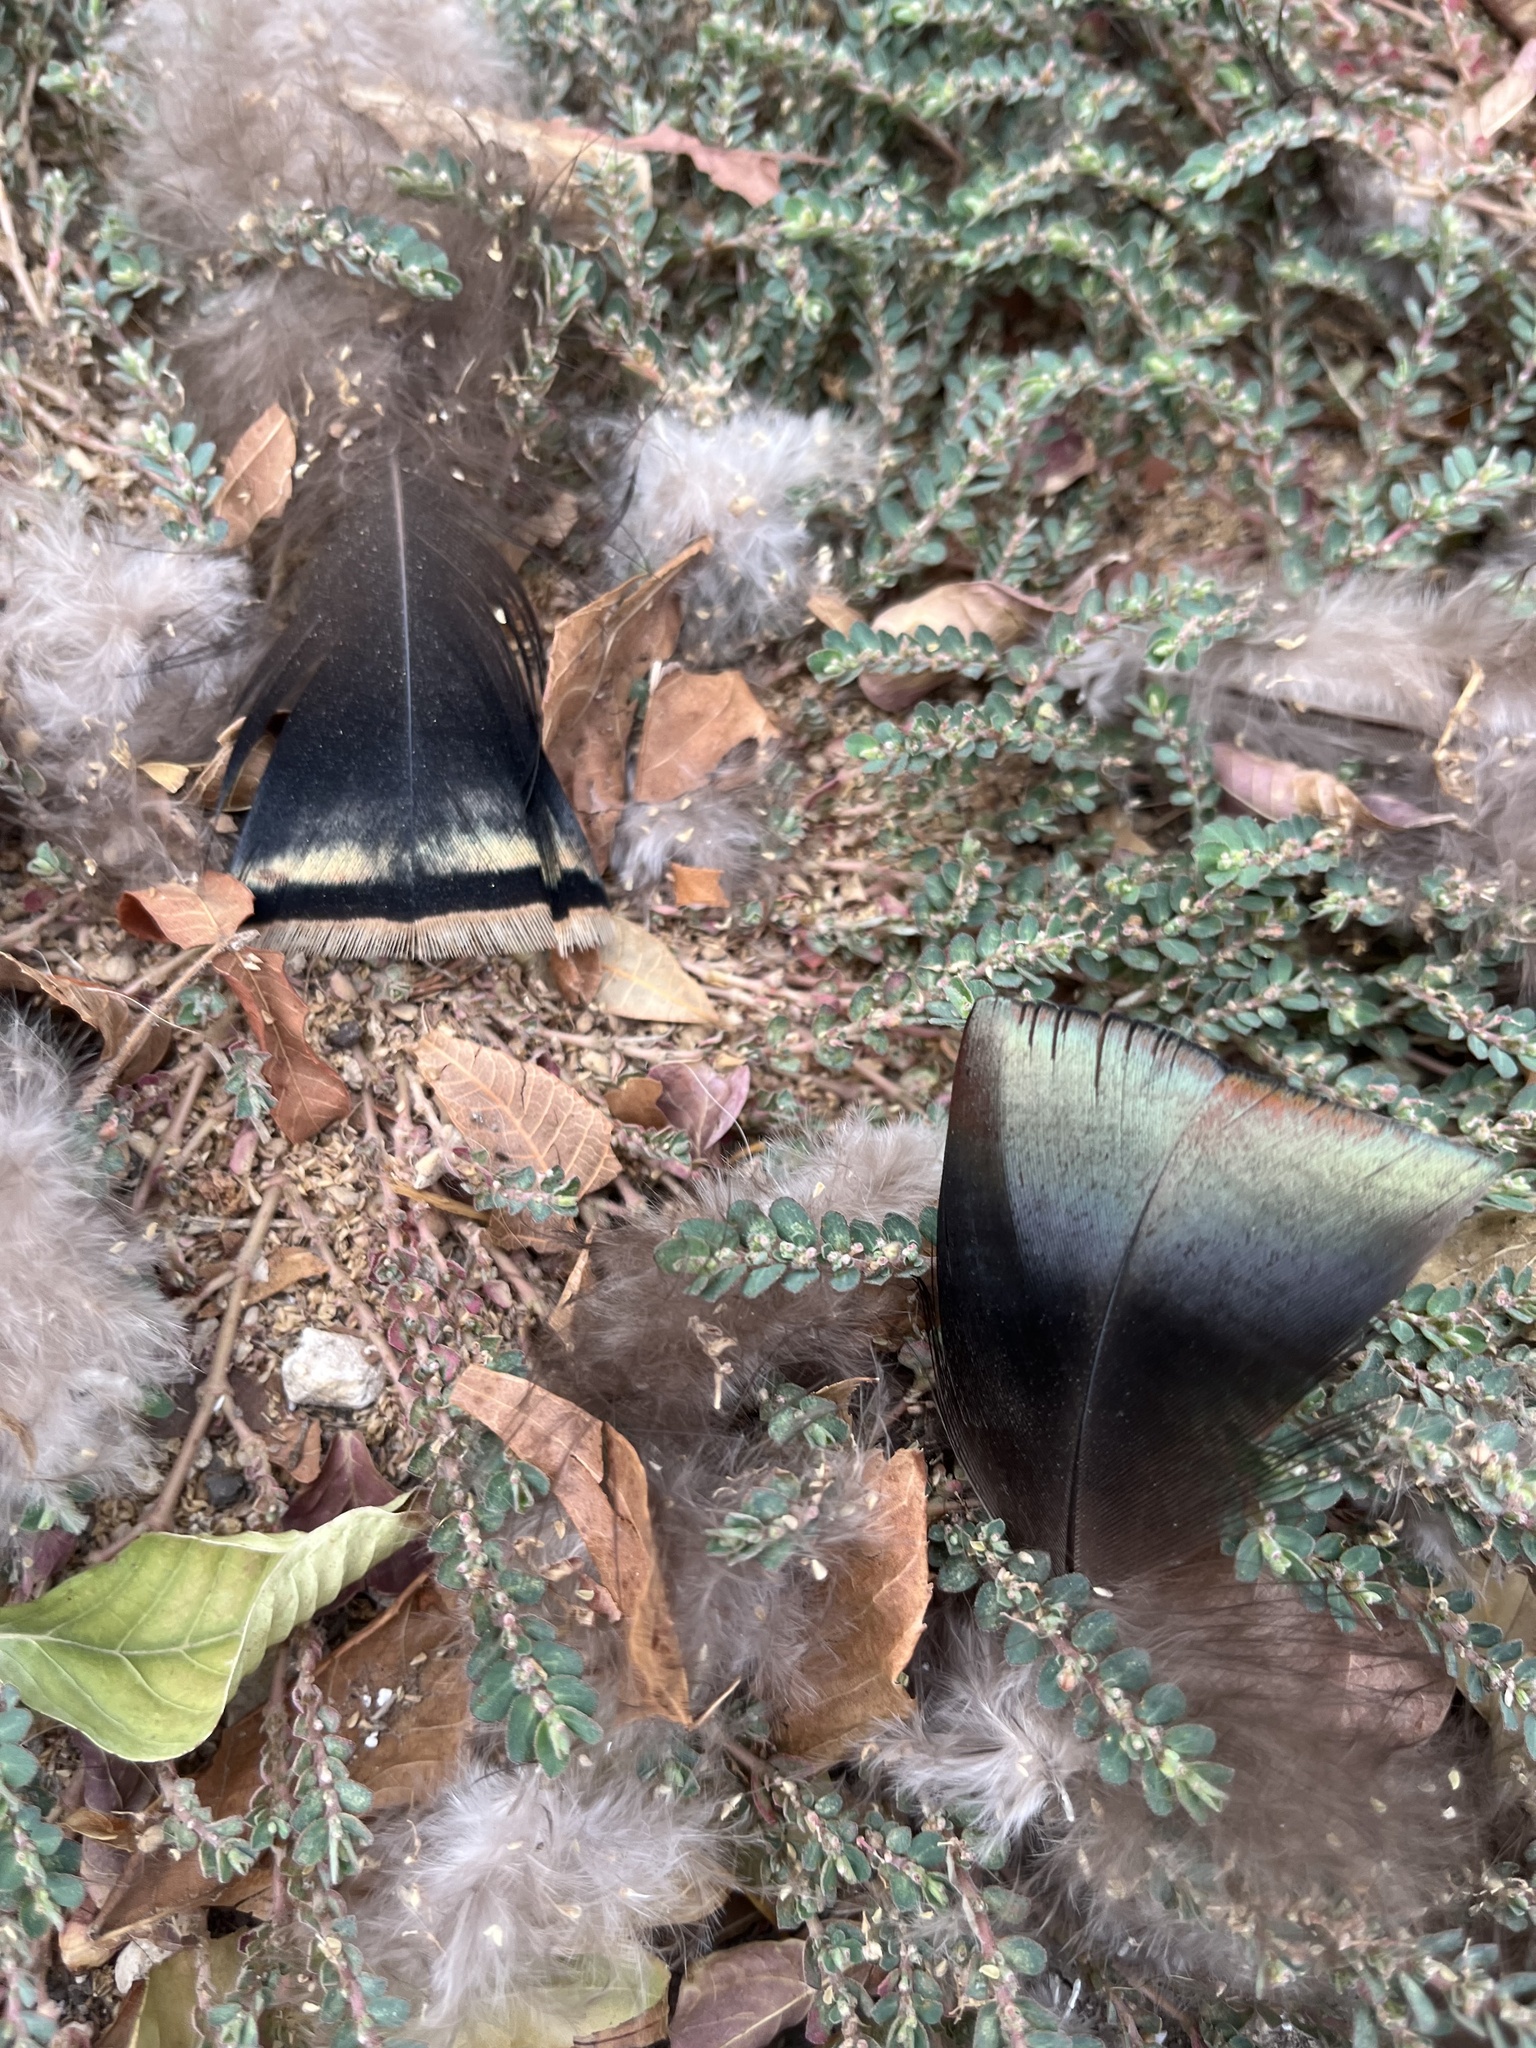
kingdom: Animalia
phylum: Chordata
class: Aves
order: Galliformes
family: Phasianidae
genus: Meleagris
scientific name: Meleagris gallopavo
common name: Wild turkey
